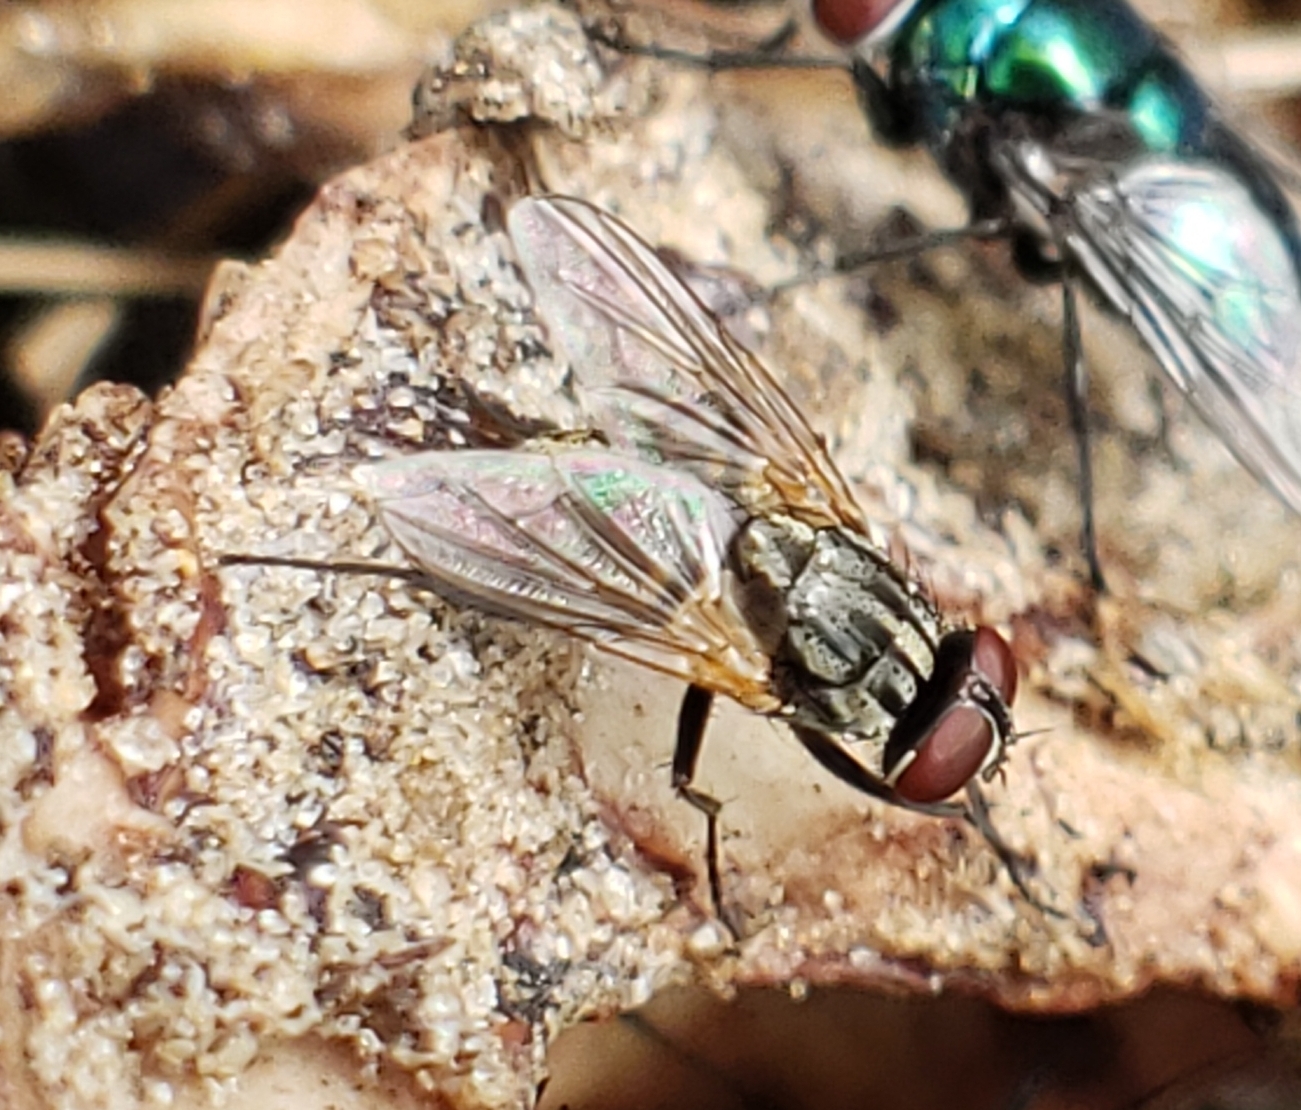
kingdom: Animalia
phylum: Arthropoda
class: Insecta
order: Diptera
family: Muscidae
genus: Musca
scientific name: Musca domestica
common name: House fly
